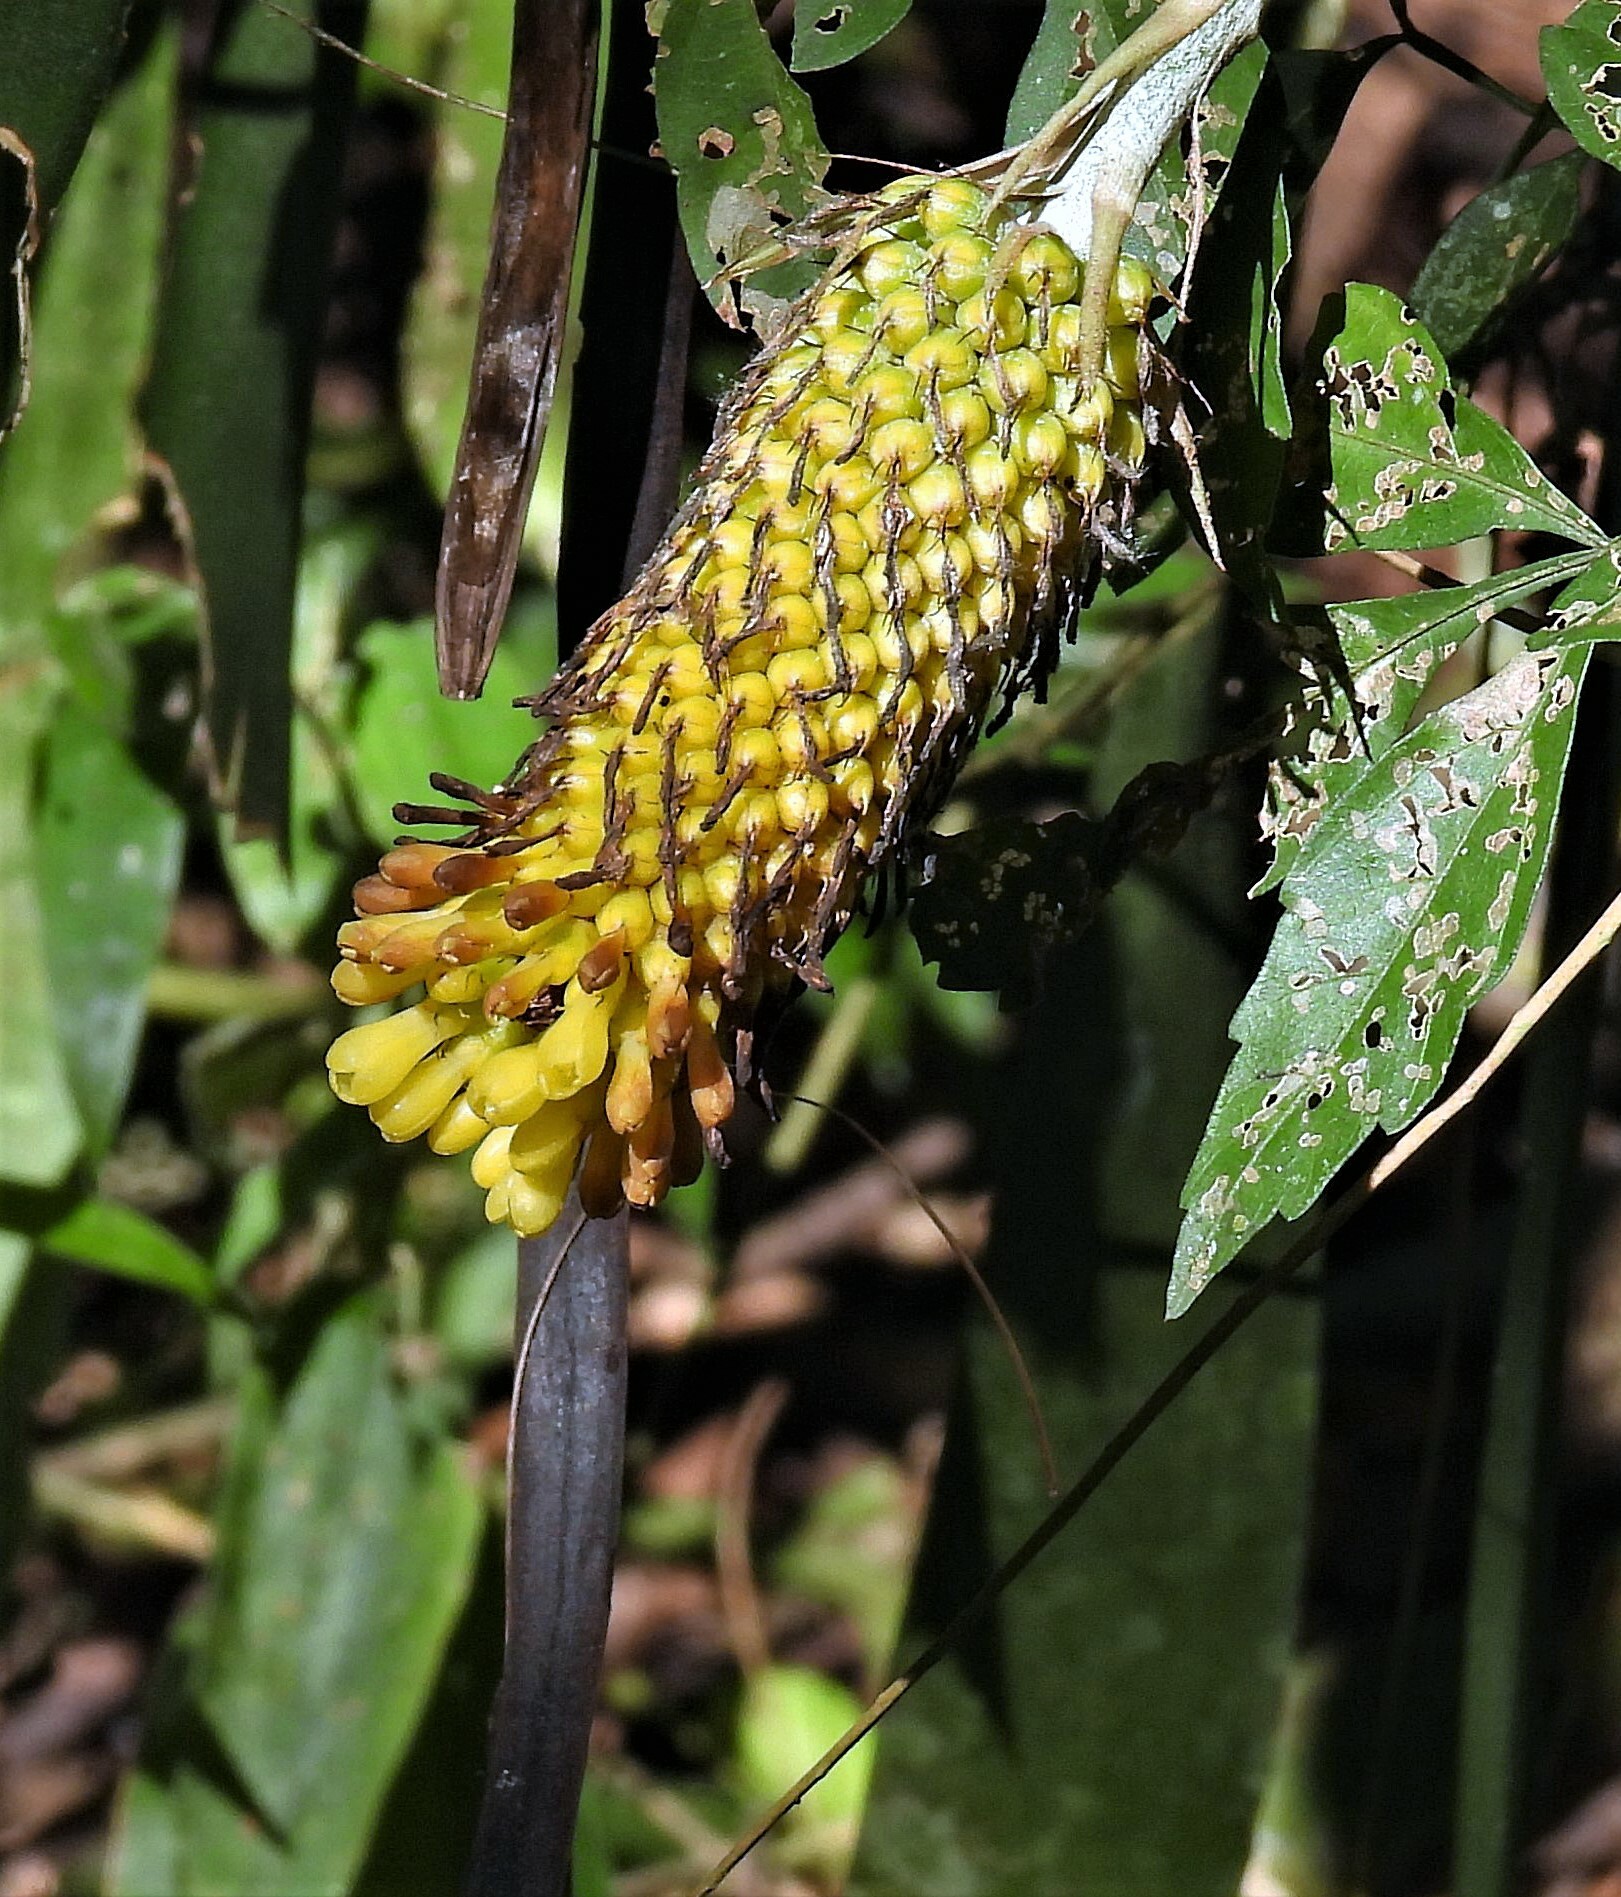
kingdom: Plantae
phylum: Tracheophyta
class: Liliopsida
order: Poales
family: Bromeliaceae
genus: Aechmea
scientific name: Aechmea calyculata
